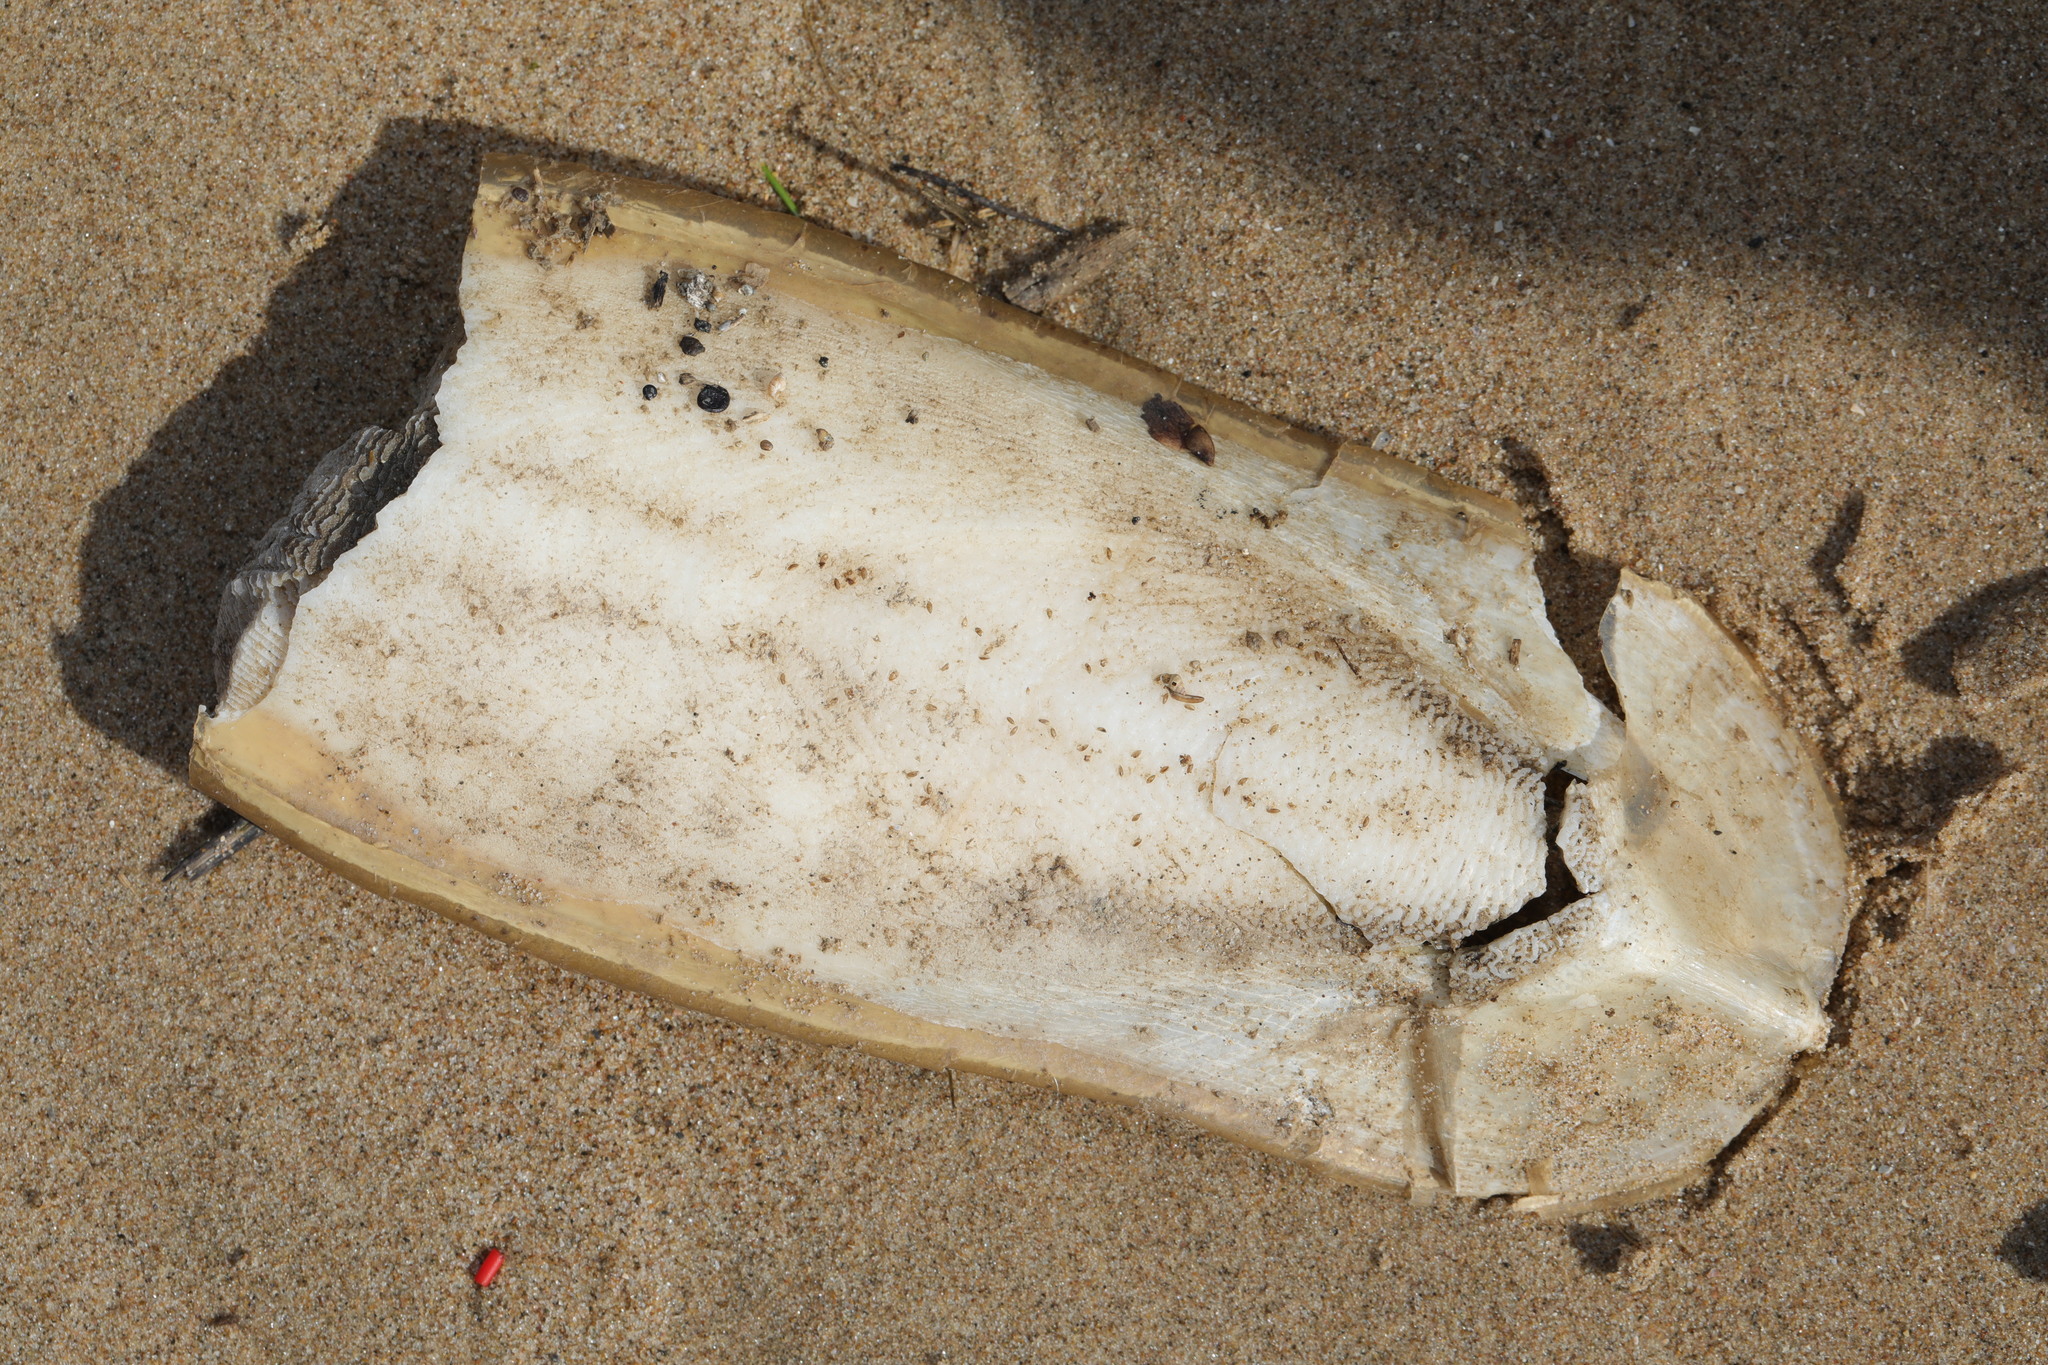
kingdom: Animalia
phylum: Mollusca
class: Cephalopoda
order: Sepiida
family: Sepiidae
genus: Sepia
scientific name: Sepia officinalis
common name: Common cuttlefish
